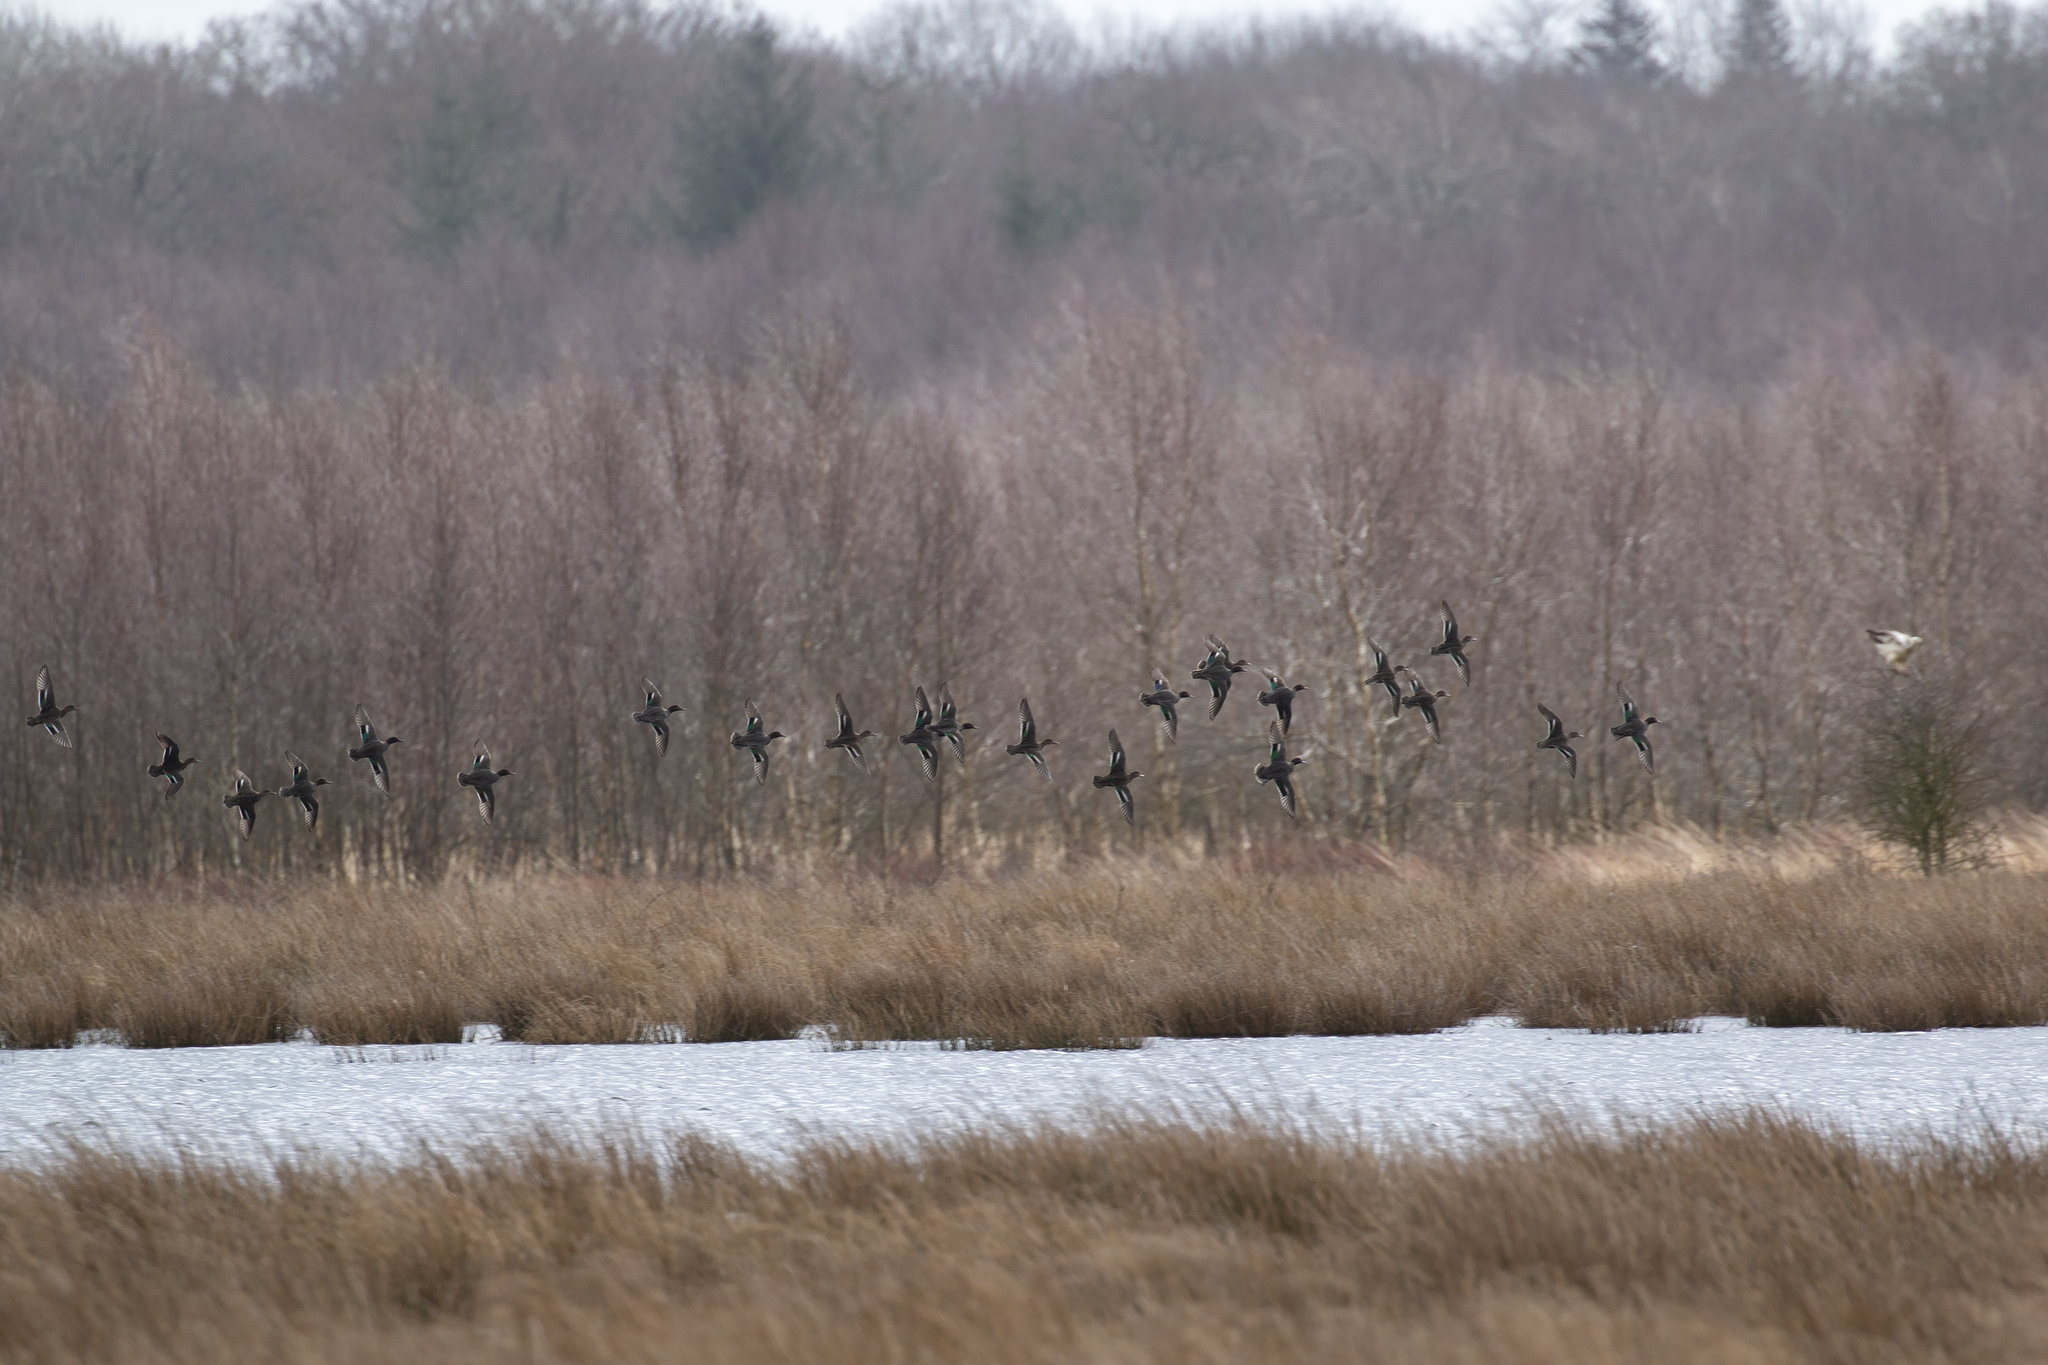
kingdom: Animalia
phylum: Chordata
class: Aves
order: Anseriformes
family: Anatidae
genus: Anas
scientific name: Anas crecca
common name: Eurasian teal
